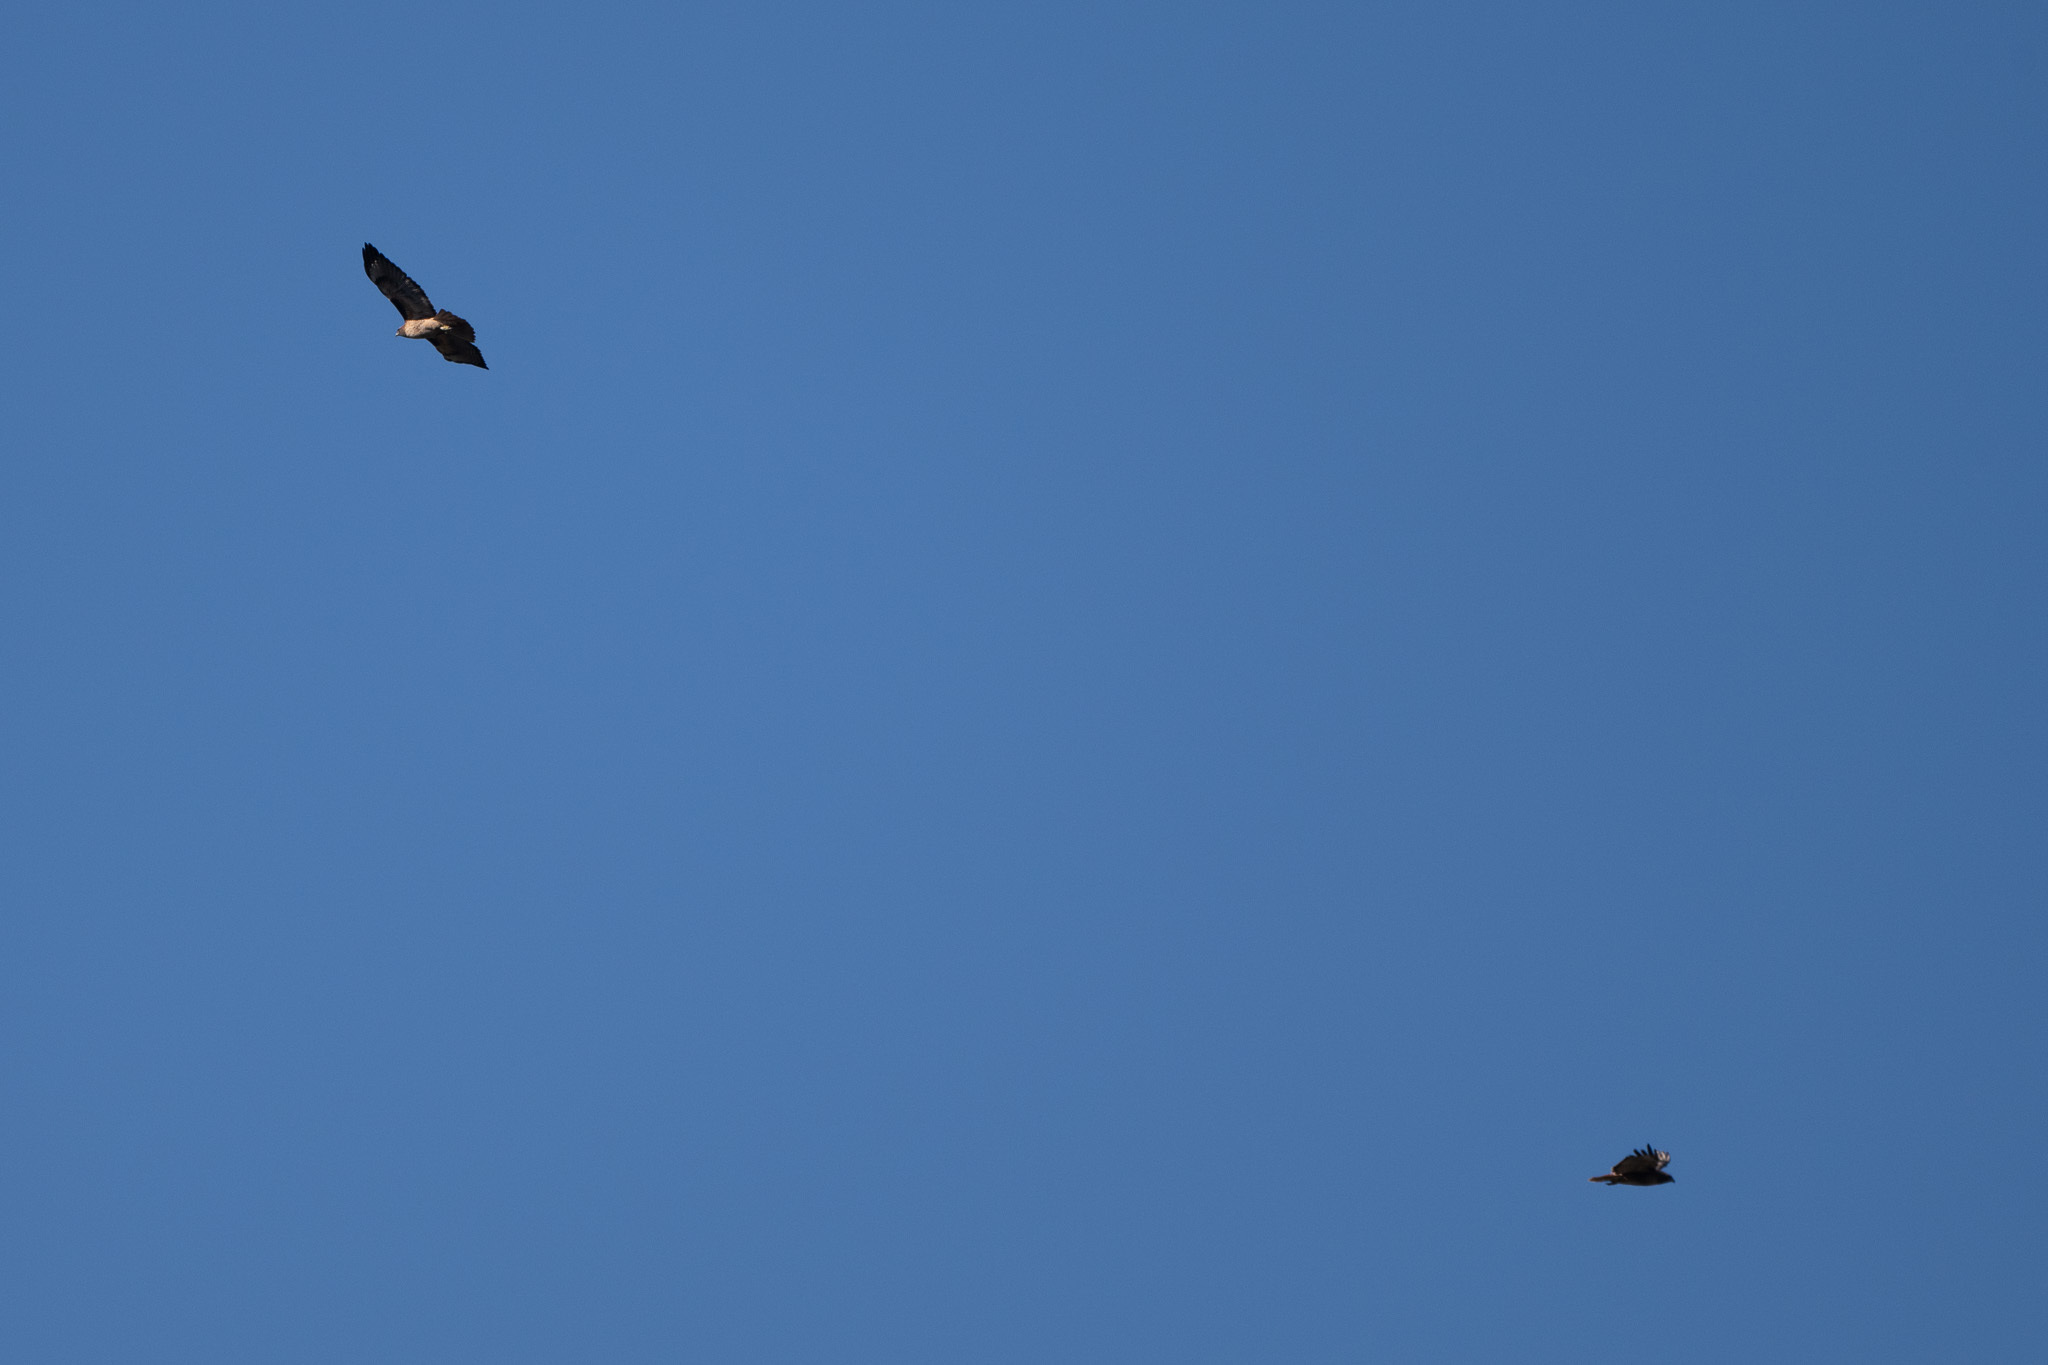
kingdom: Animalia
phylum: Chordata
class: Aves
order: Accipitriformes
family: Accipitridae
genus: Buteo
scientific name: Buteo jamaicensis
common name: Red-tailed hawk
